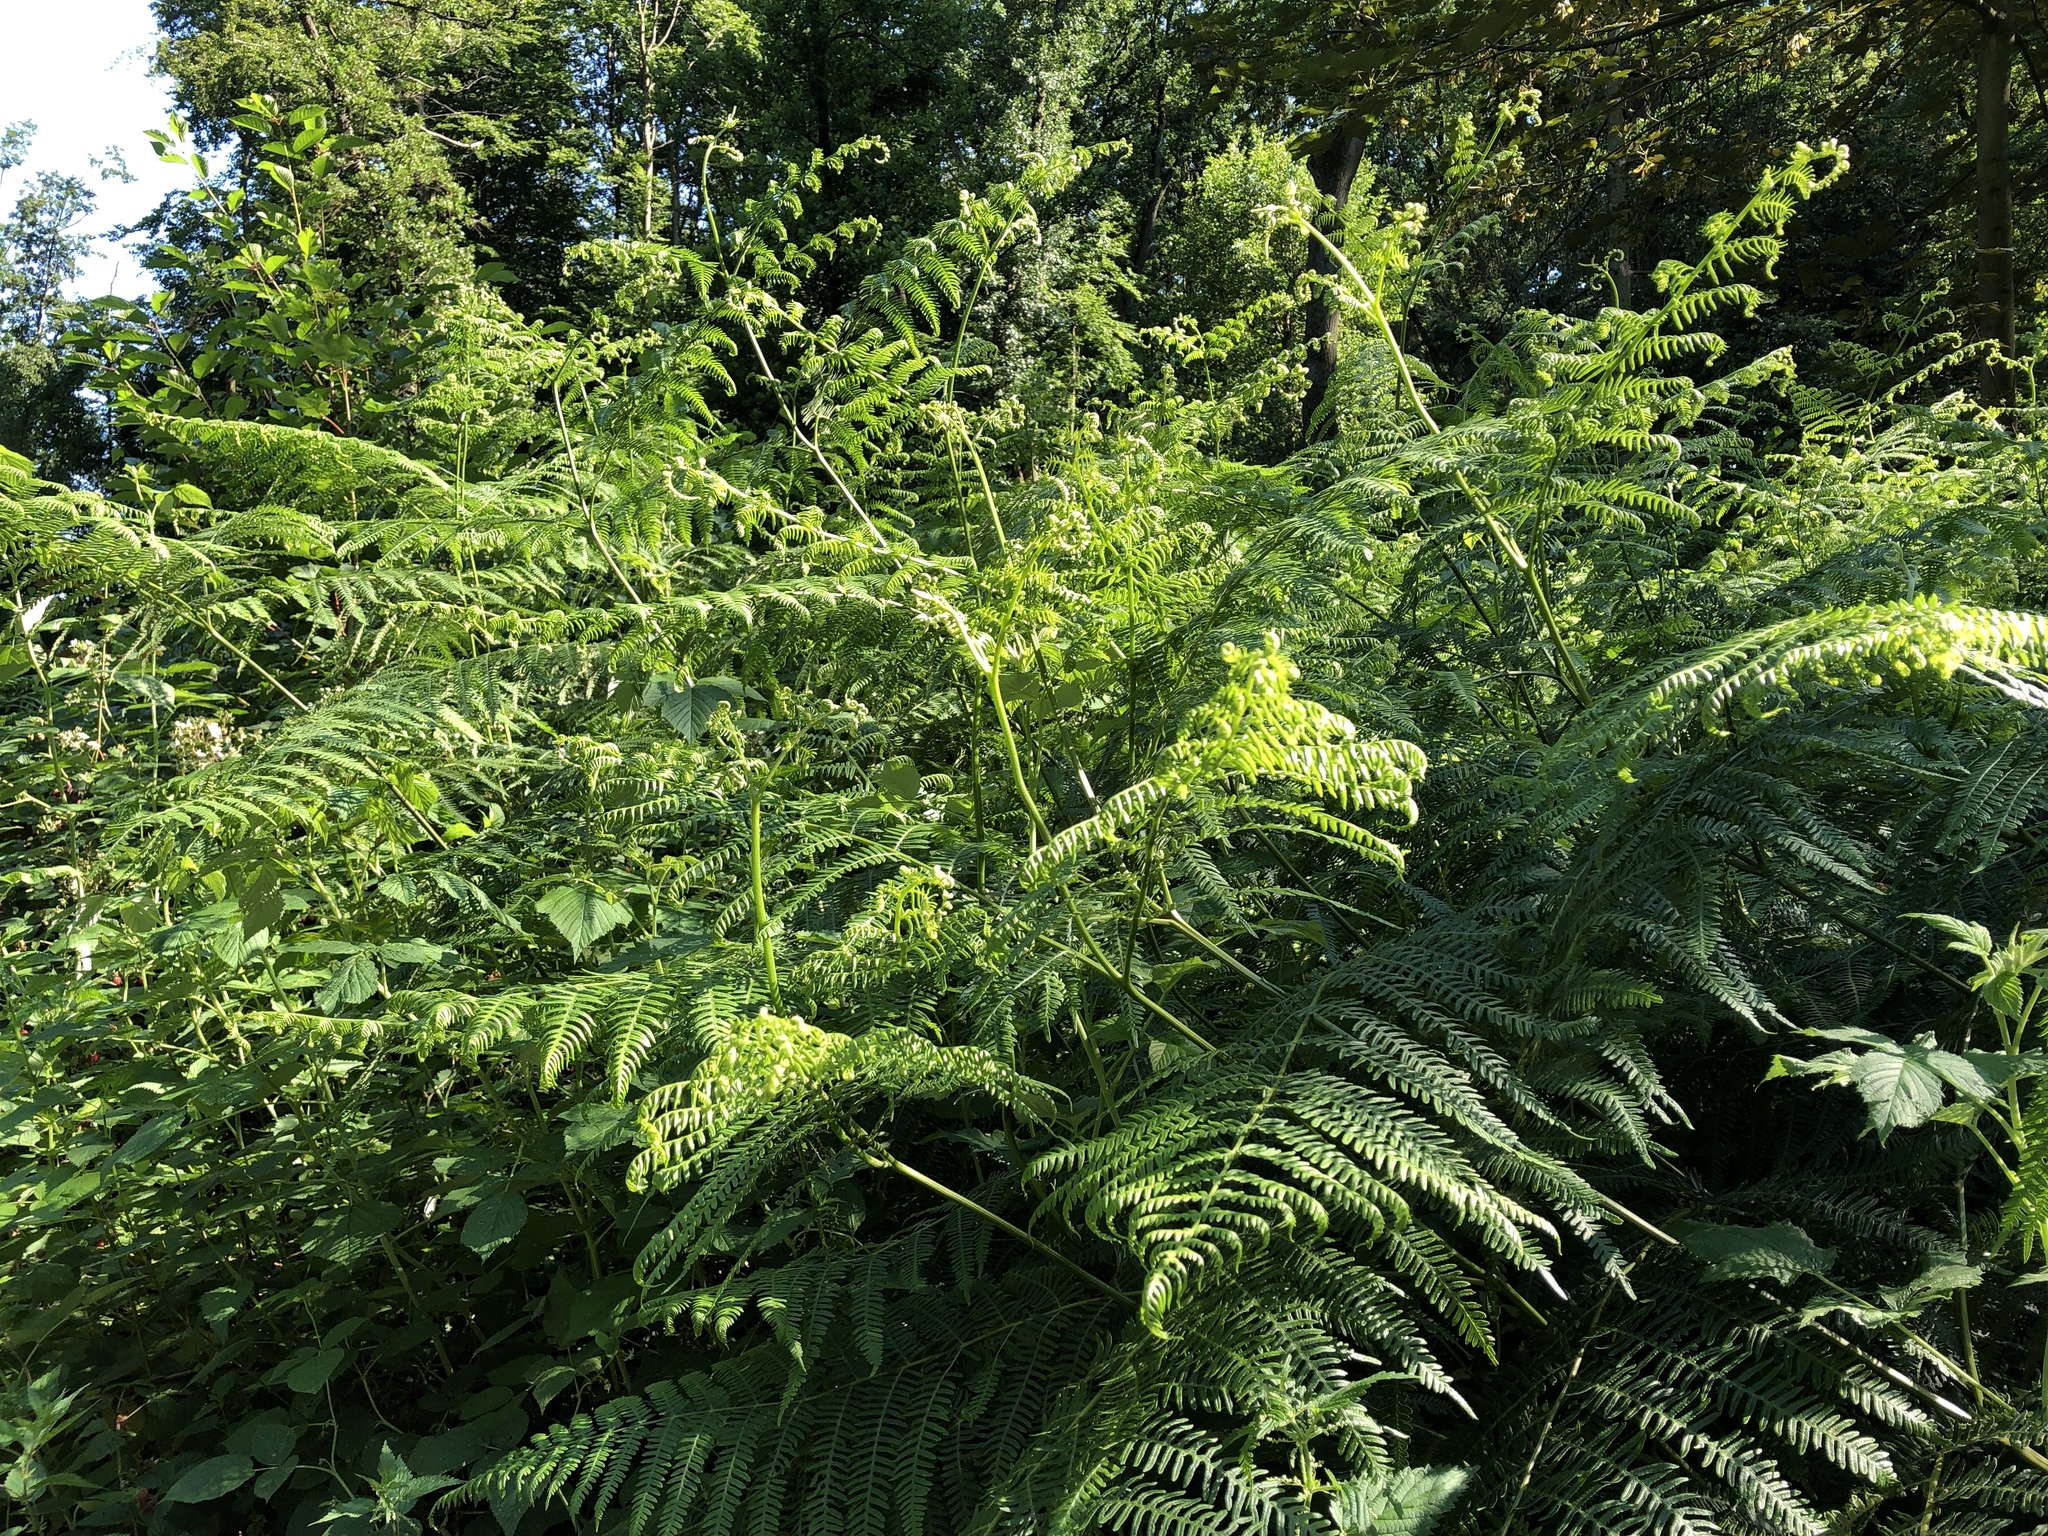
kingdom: Plantae
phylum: Tracheophyta
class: Polypodiopsida
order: Polypodiales
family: Dennstaedtiaceae
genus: Pteridium
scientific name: Pteridium aquilinum
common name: Bracken
